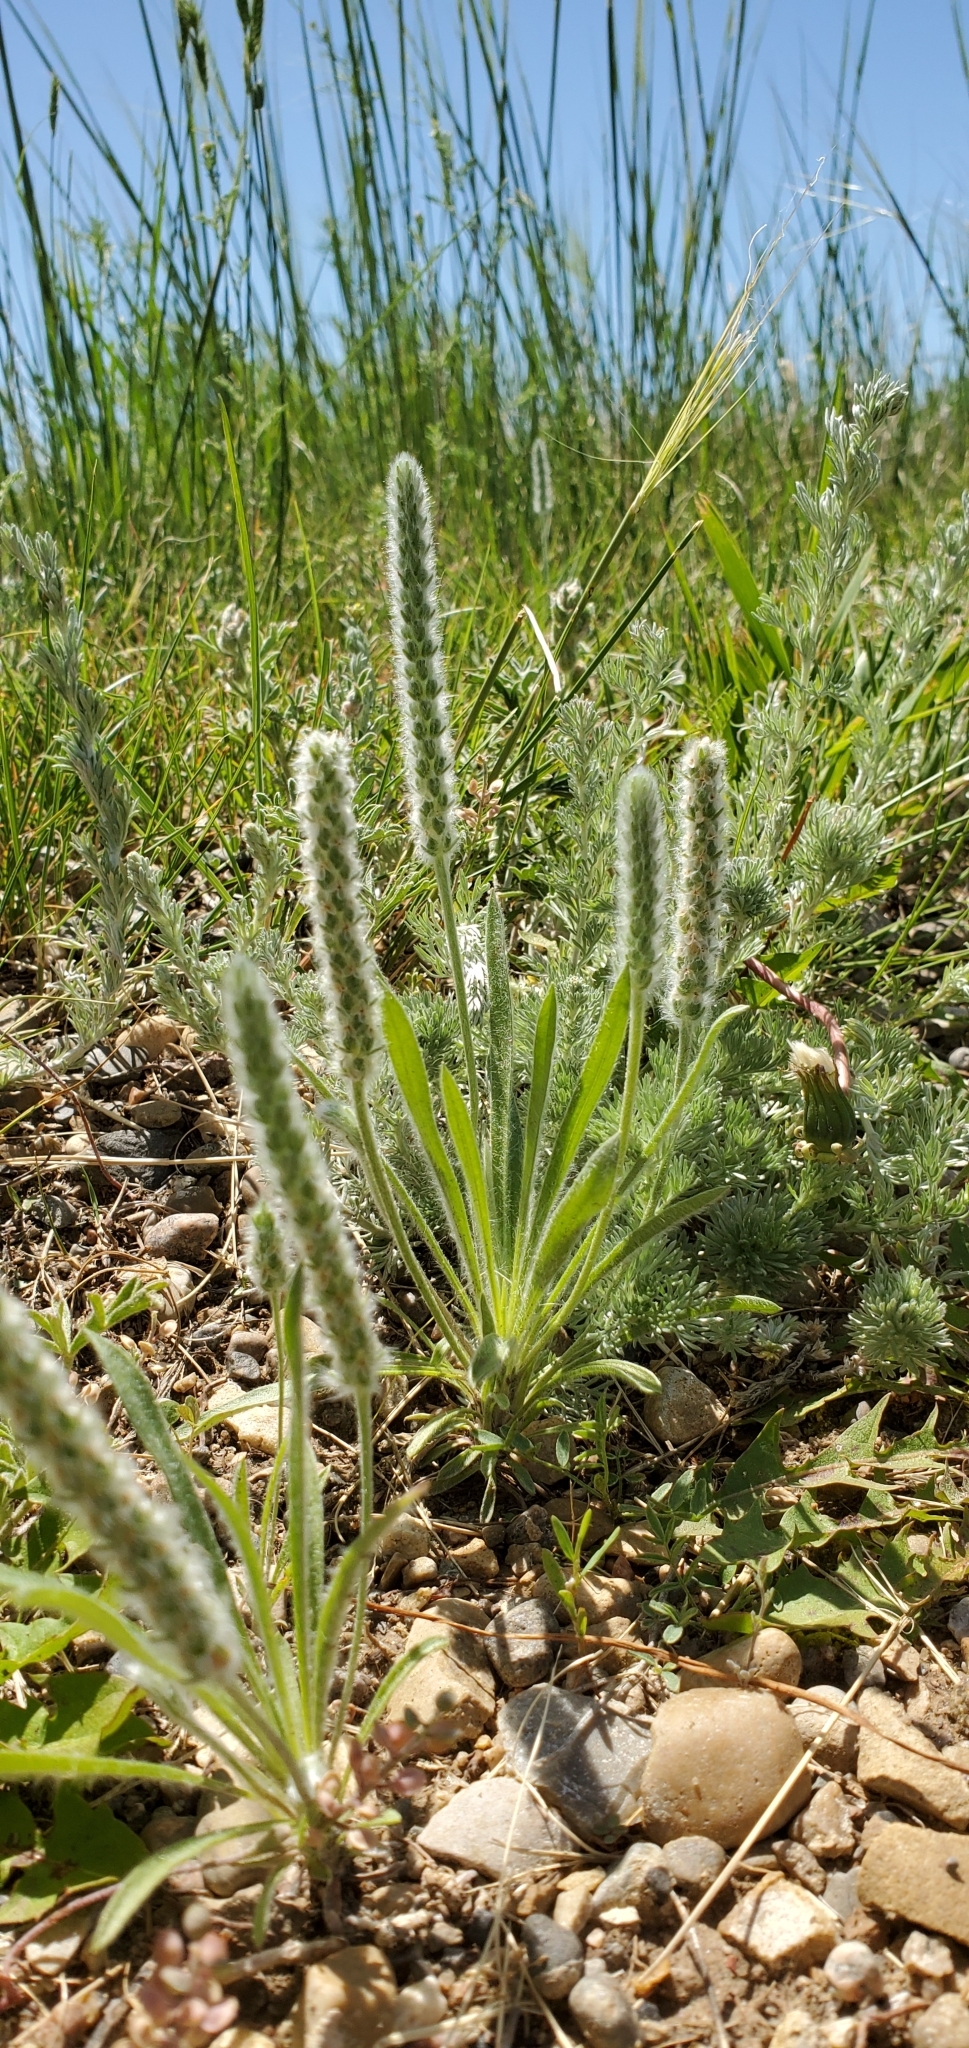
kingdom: Plantae
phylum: Tracheophyta
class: Magnoliopsida
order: Lamiales
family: Plantaginaceae
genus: Plantago
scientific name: Plantago patagonica
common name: Patagonia indian-wheat
